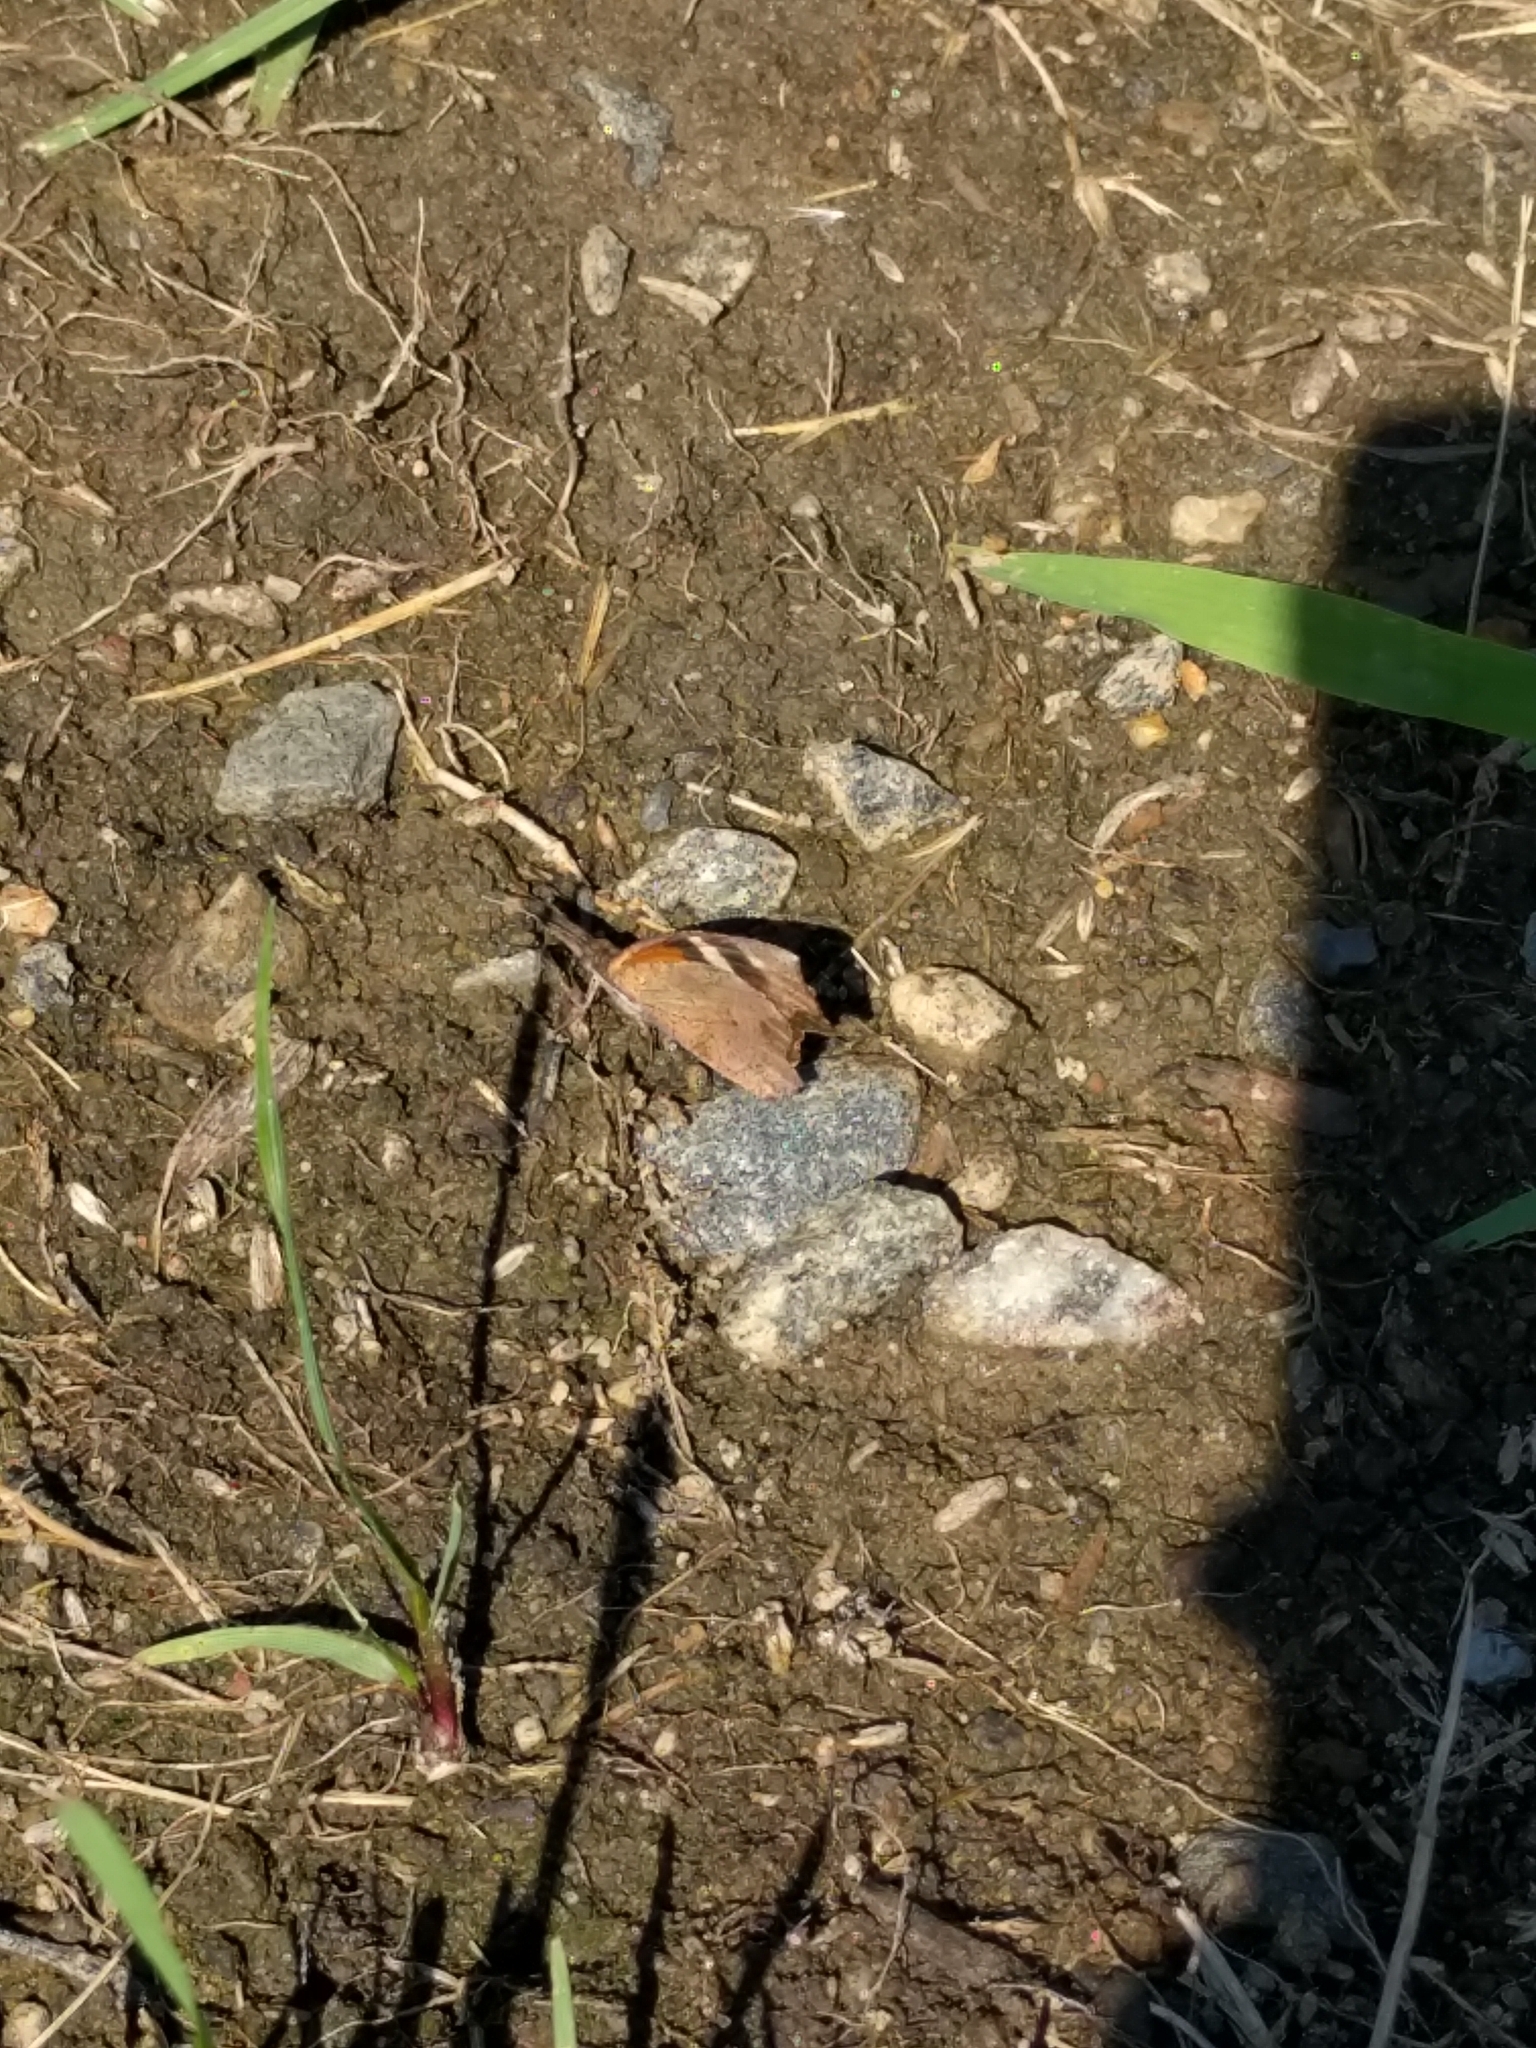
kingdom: Animalia
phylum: Arthropoda
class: Insecta
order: Lepidoptera
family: Nymphalidae
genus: Libytheana
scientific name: Libytheana carinenta
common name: American snout
